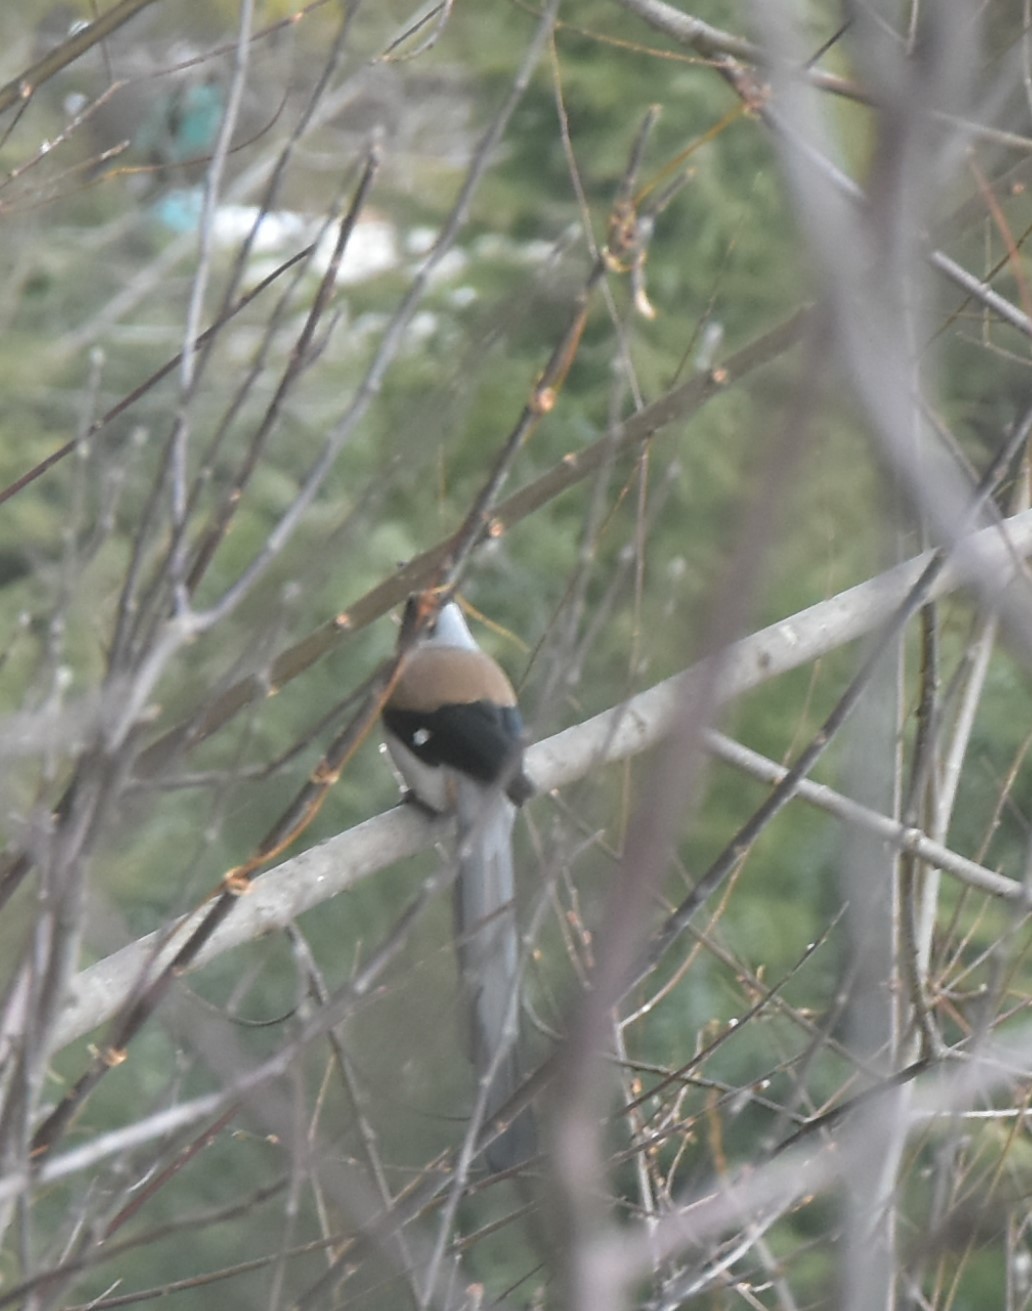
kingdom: Animalia
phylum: Chordata
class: Aves
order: Passeriformes
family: Corvidae
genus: Dendrocitta
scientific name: Dendrocitta formosae
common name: Grey treepie
